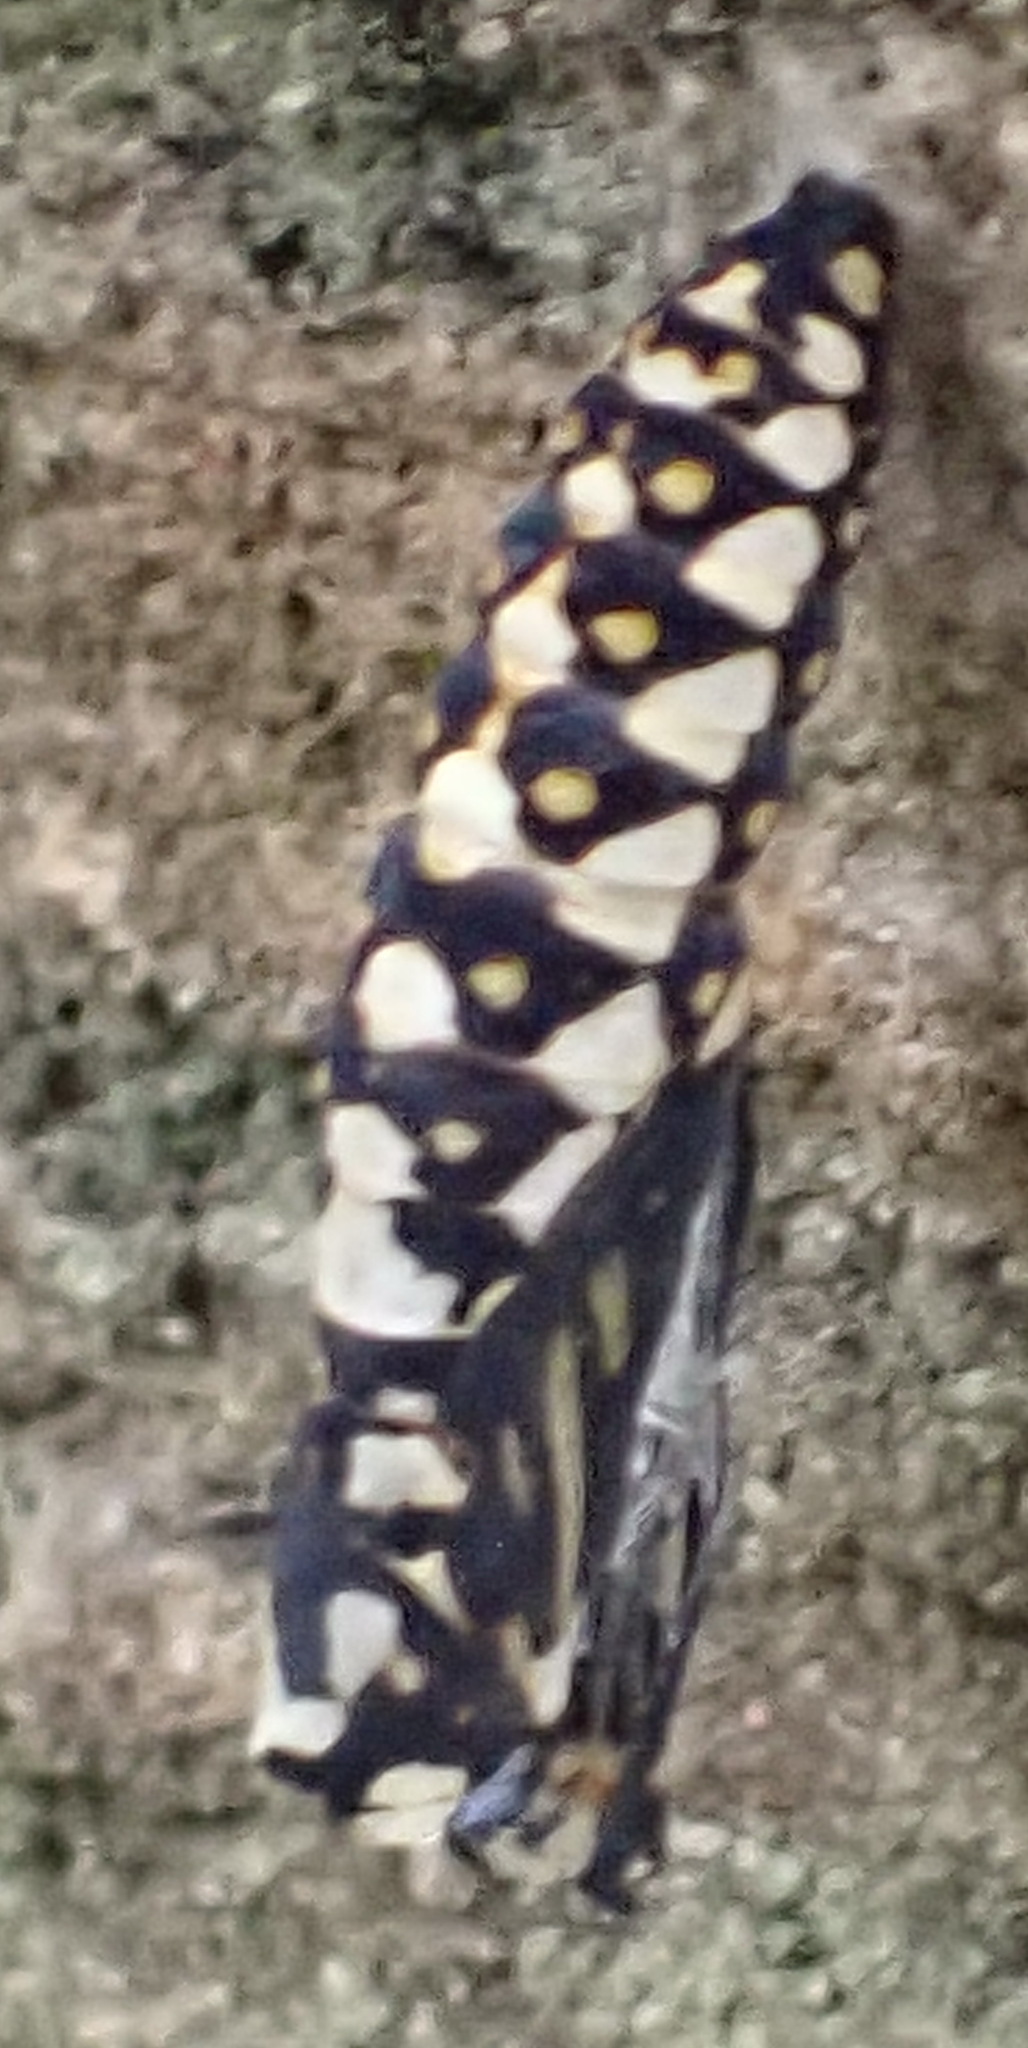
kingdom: Animalia
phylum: Arthropoda
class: Insecta
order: Lepidoptera
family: Nymphalidae
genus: Acraea
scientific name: Acraea horta
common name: Garden acraea
